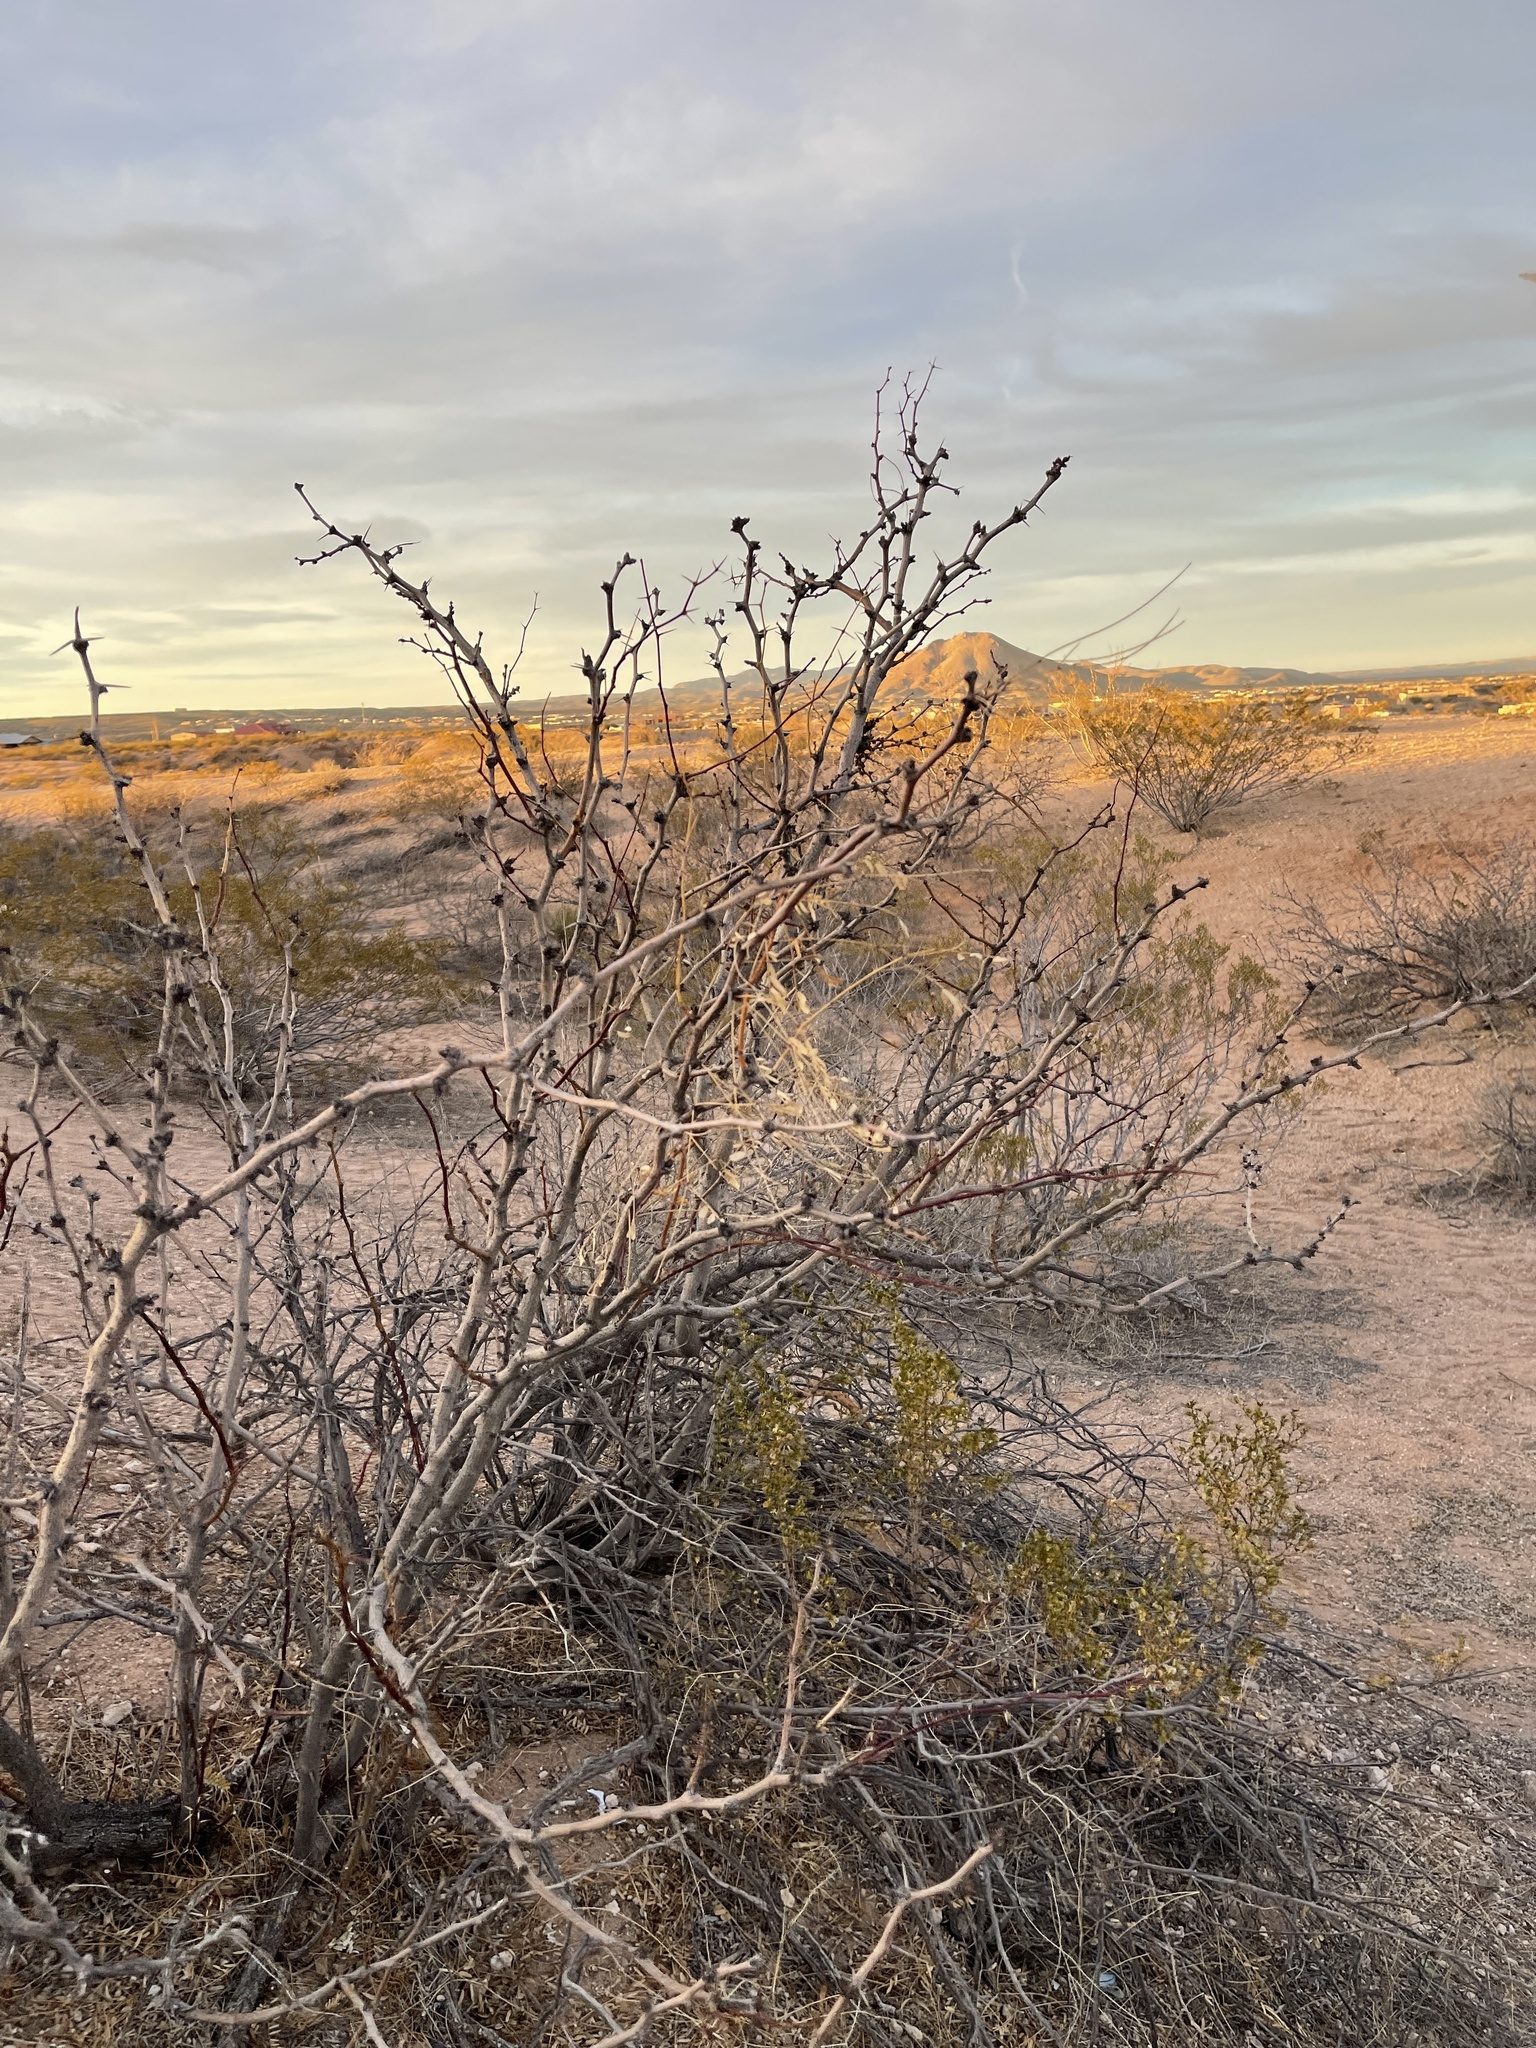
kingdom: Plantae
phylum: Tracheophyta
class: Magnoliopsida
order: Fabales
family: Fabaceae
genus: Prosopis
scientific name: Prosopis glandulosa
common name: Honey mesquite
